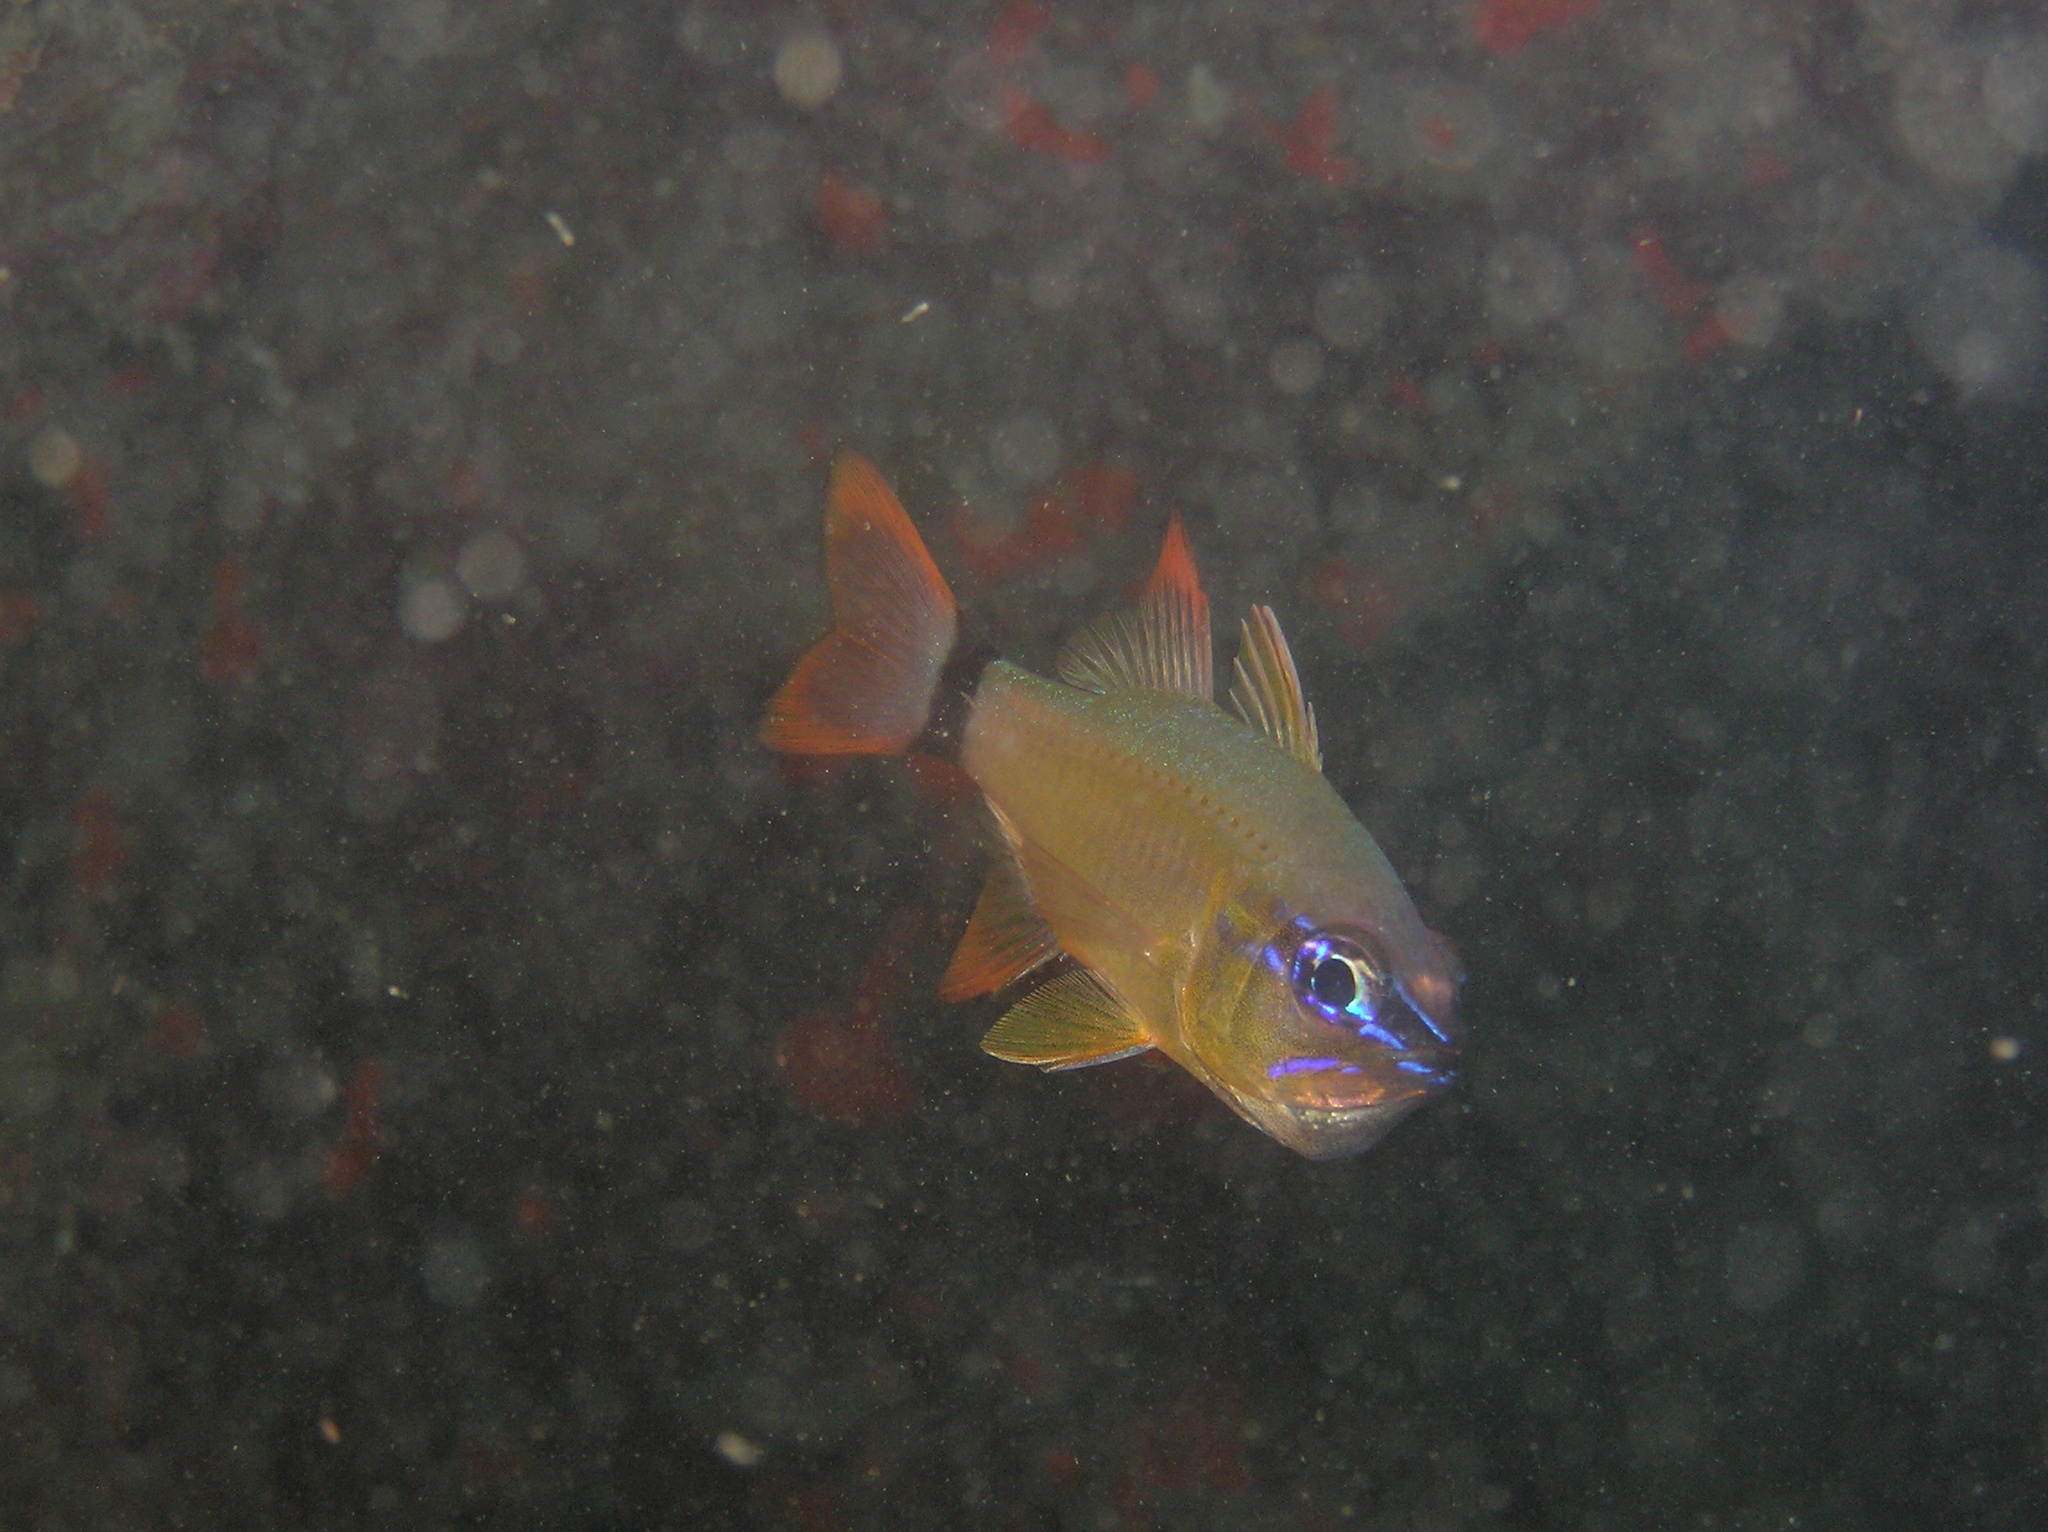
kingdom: Animalia
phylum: Chordata
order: Perciformes
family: Apogonidae
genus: Ostorhinchus
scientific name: Ostorhinchus aureus
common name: Ring-tailed cardinalfish
